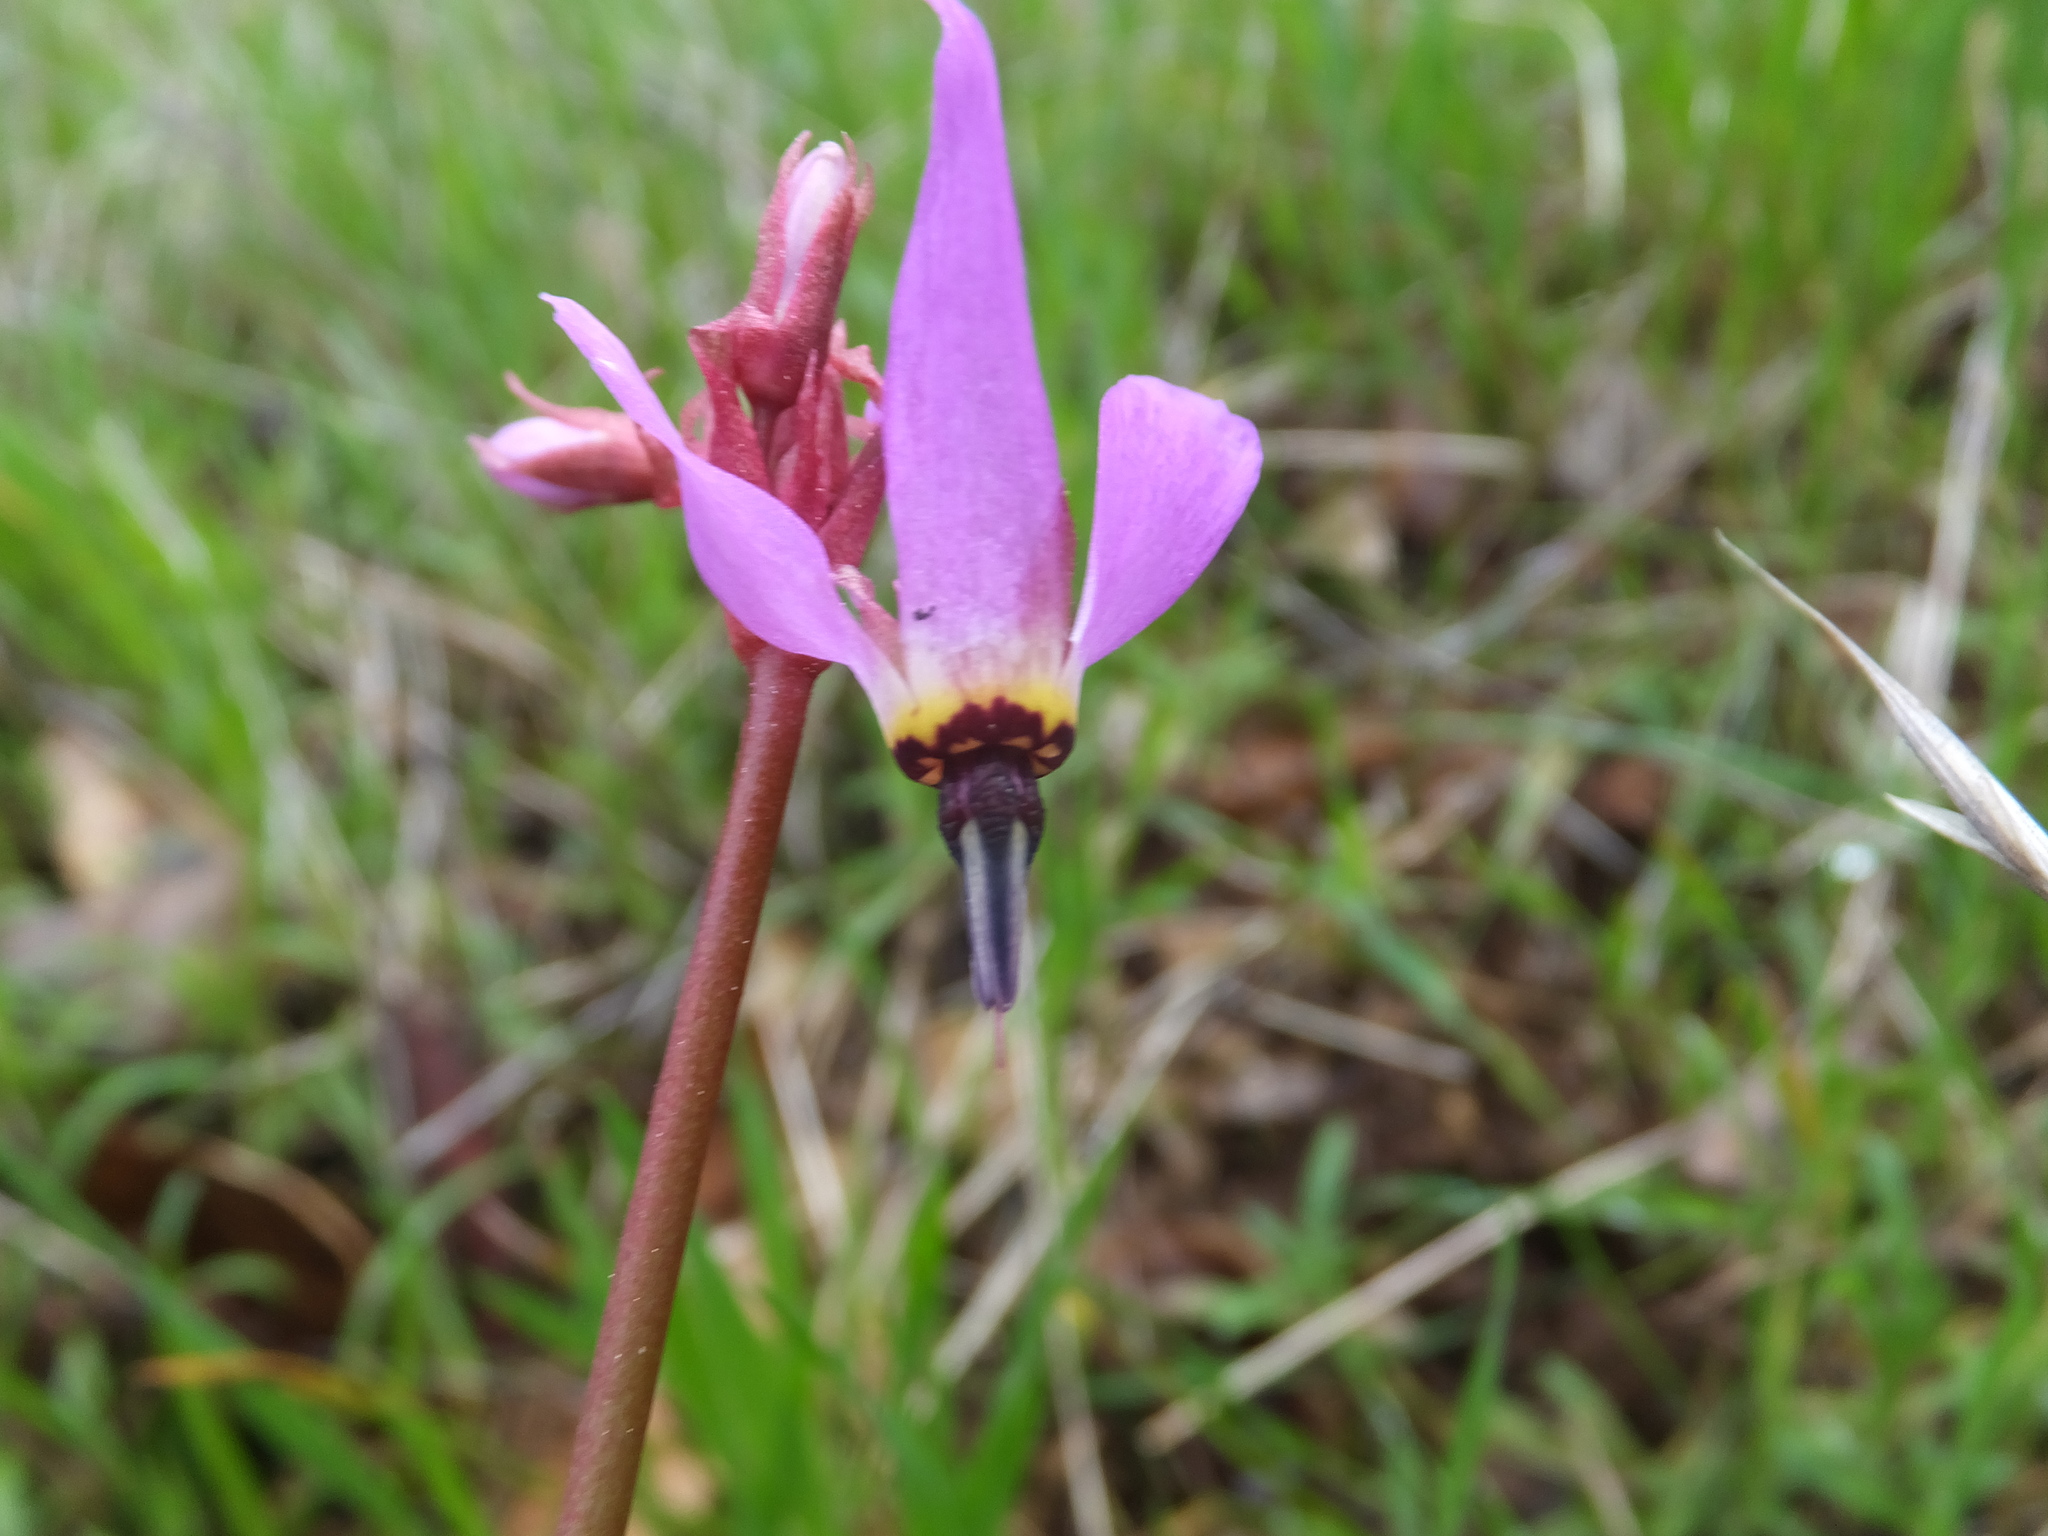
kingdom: Plantae
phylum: Tracheophyta
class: Magnoliopsida
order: Ericales
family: Primulaceae
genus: Dodecatheon
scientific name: Dodecatheon hendersonii
